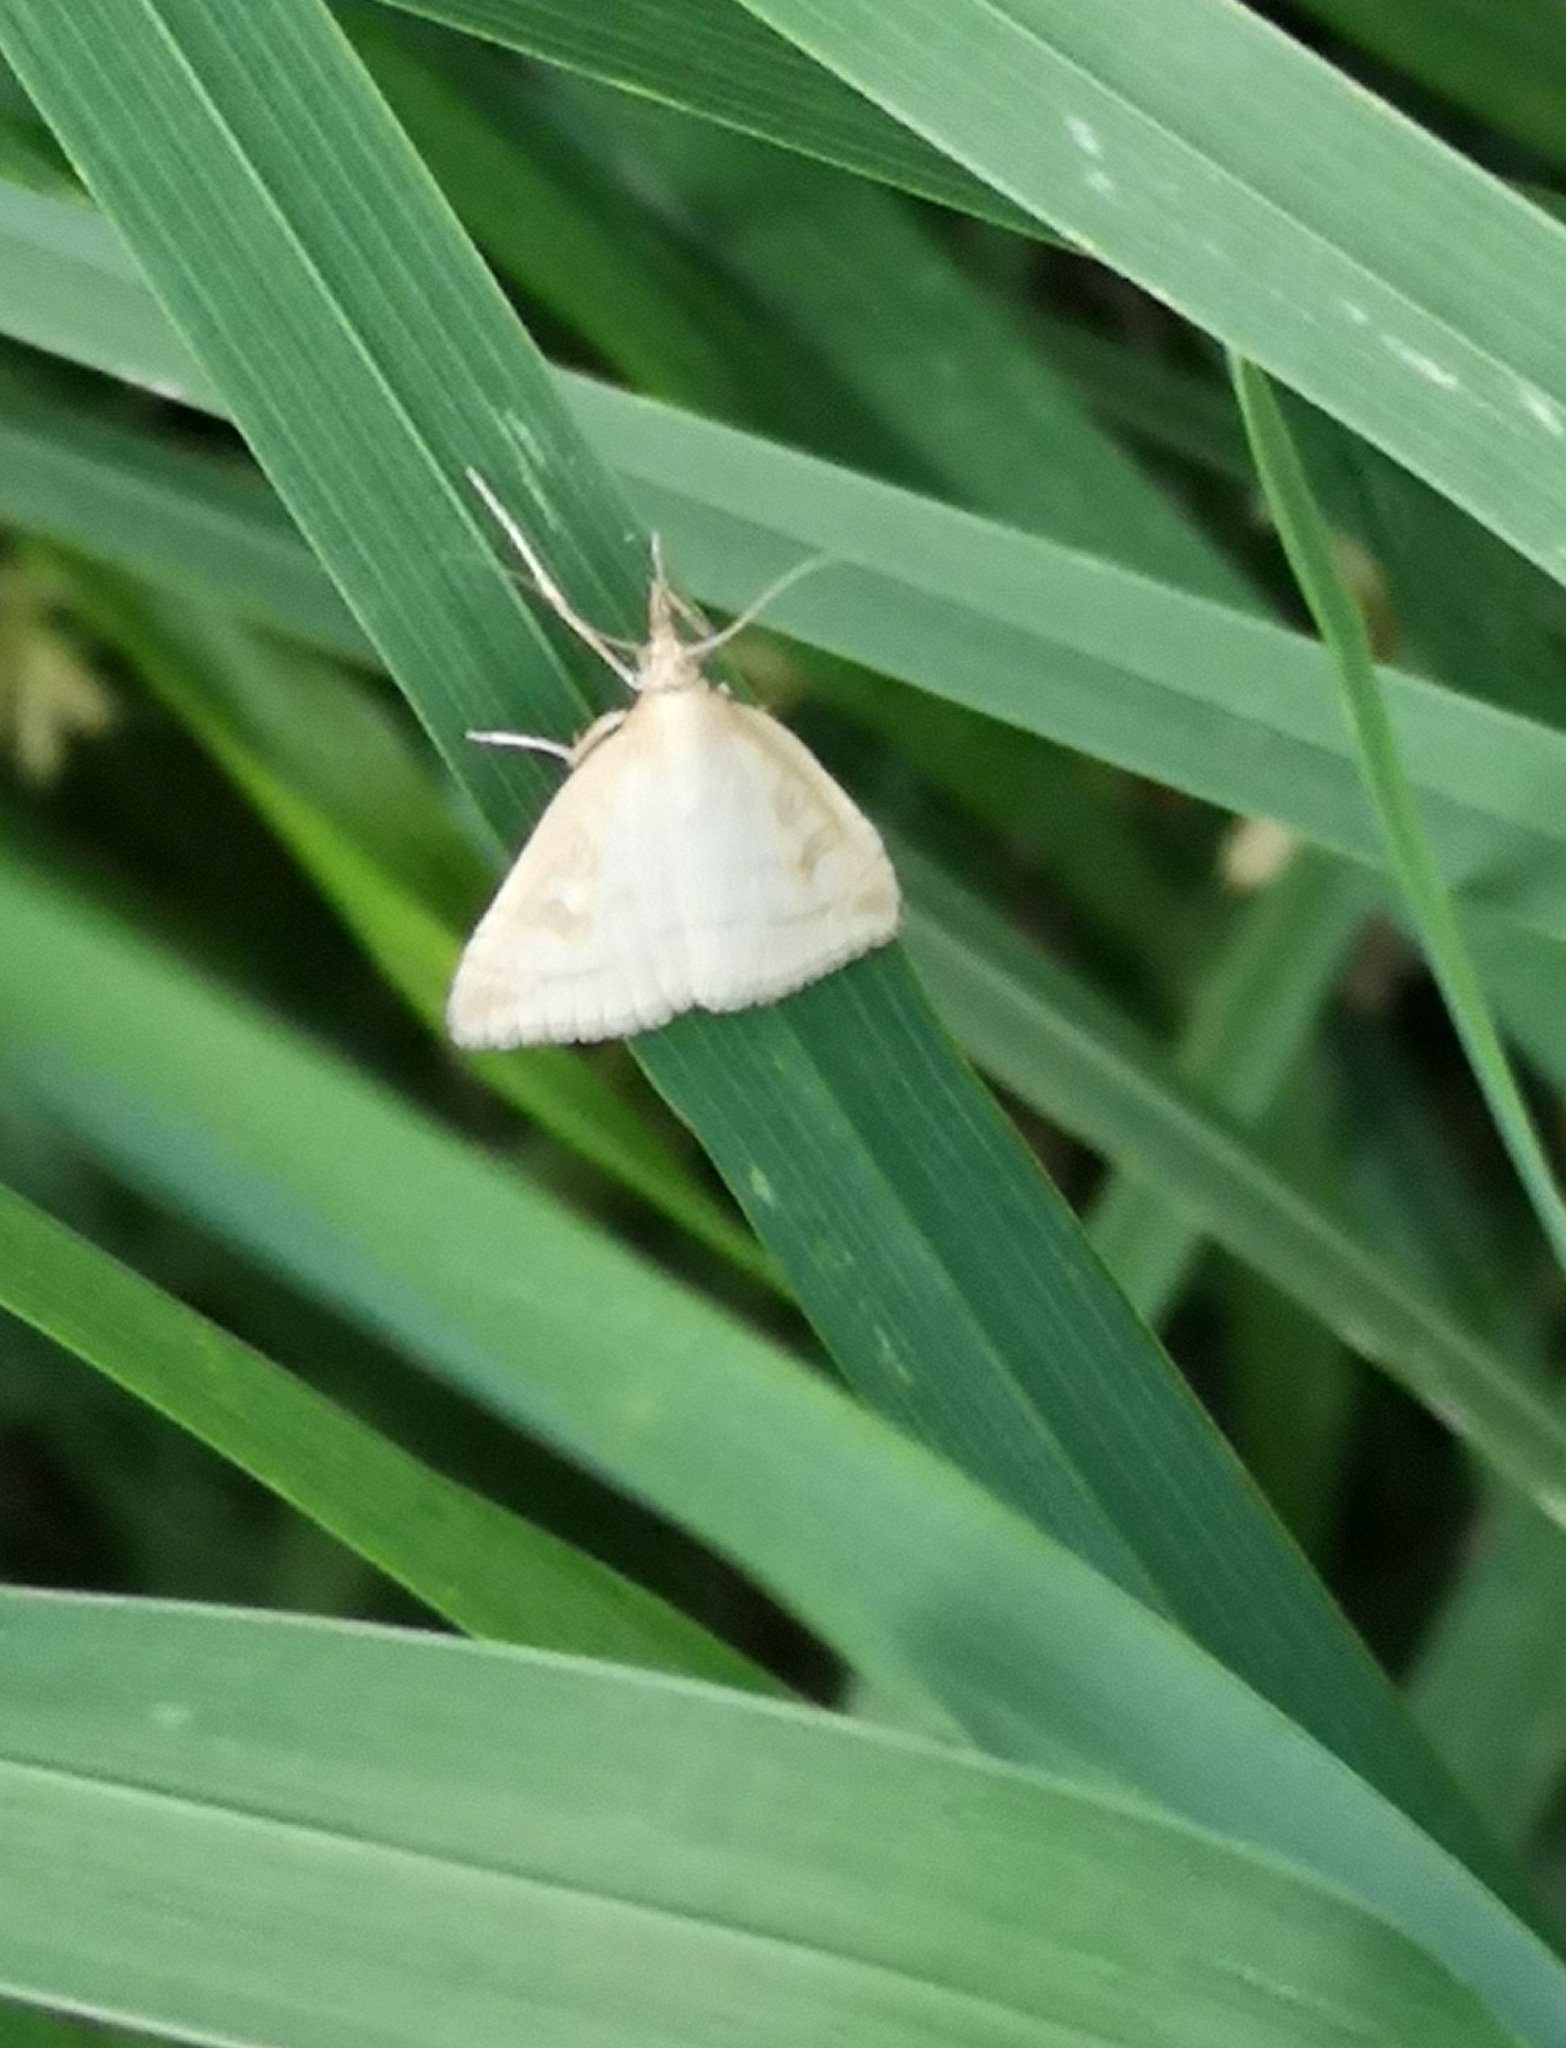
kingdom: Animalia
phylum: Arthropoda
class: Insecta
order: Lepidoptera
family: Crambidae
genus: Udea
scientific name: Udea lutealis
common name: Pale straw pearl
